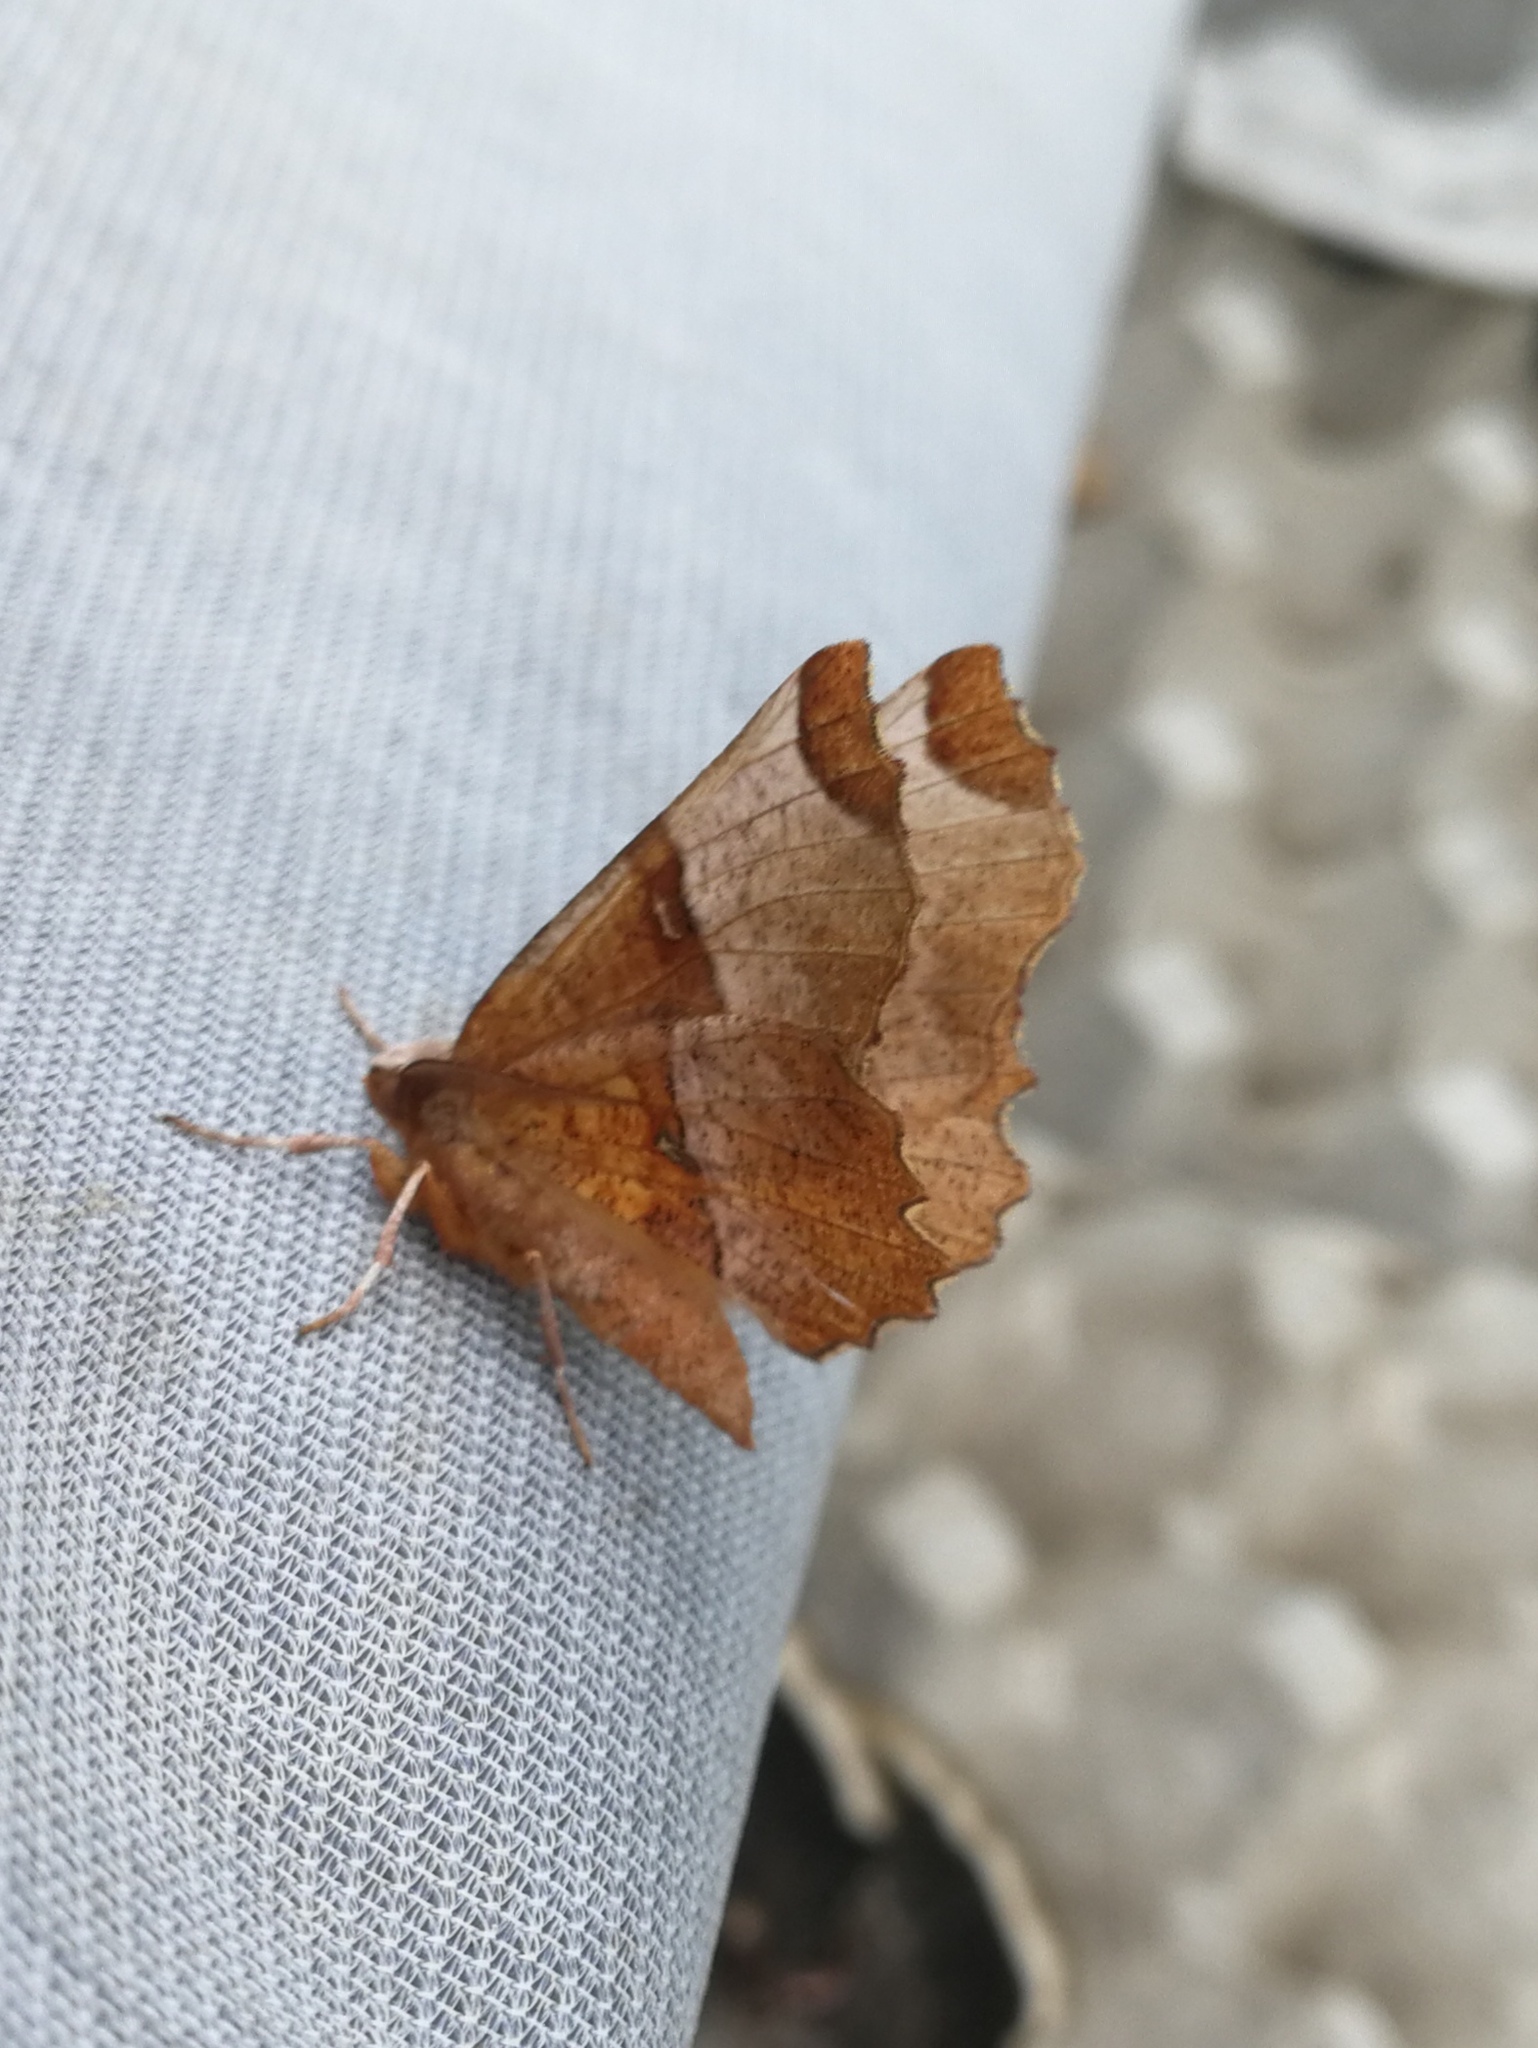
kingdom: Animalia
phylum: Arthropoda
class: Insecta
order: Lepidoptera
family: Geometridae
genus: Selenia
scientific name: Selenia lunularia
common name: Lunar thorn
